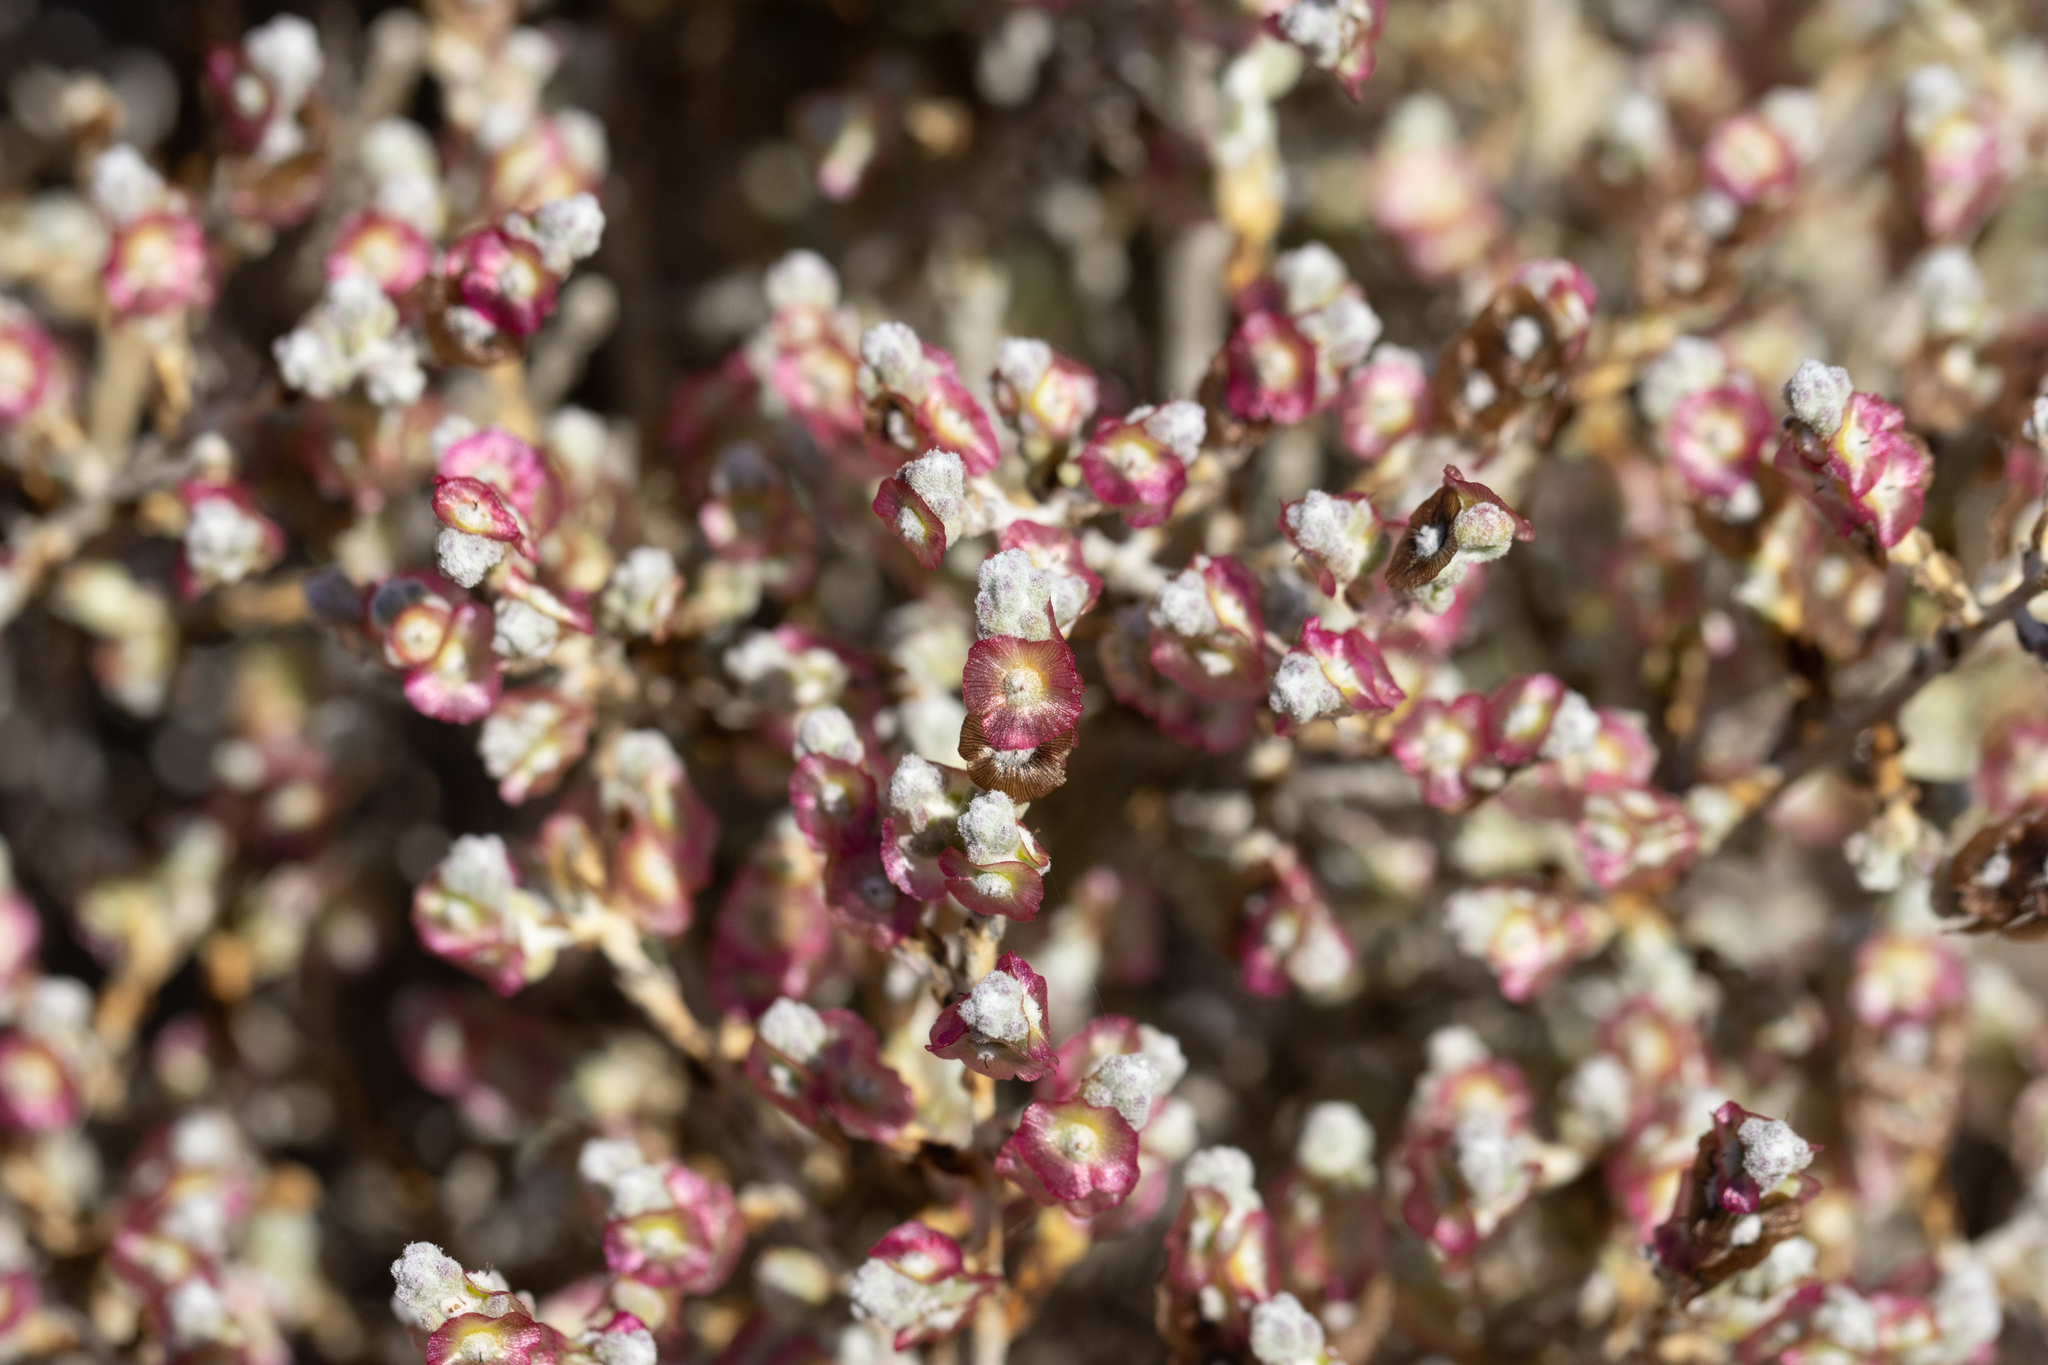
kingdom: Plantae
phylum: Tracheophyta
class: Magnoliopsida
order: Caryophyllales
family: Amaranthaceae
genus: Maireana
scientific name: Maireana radiata
